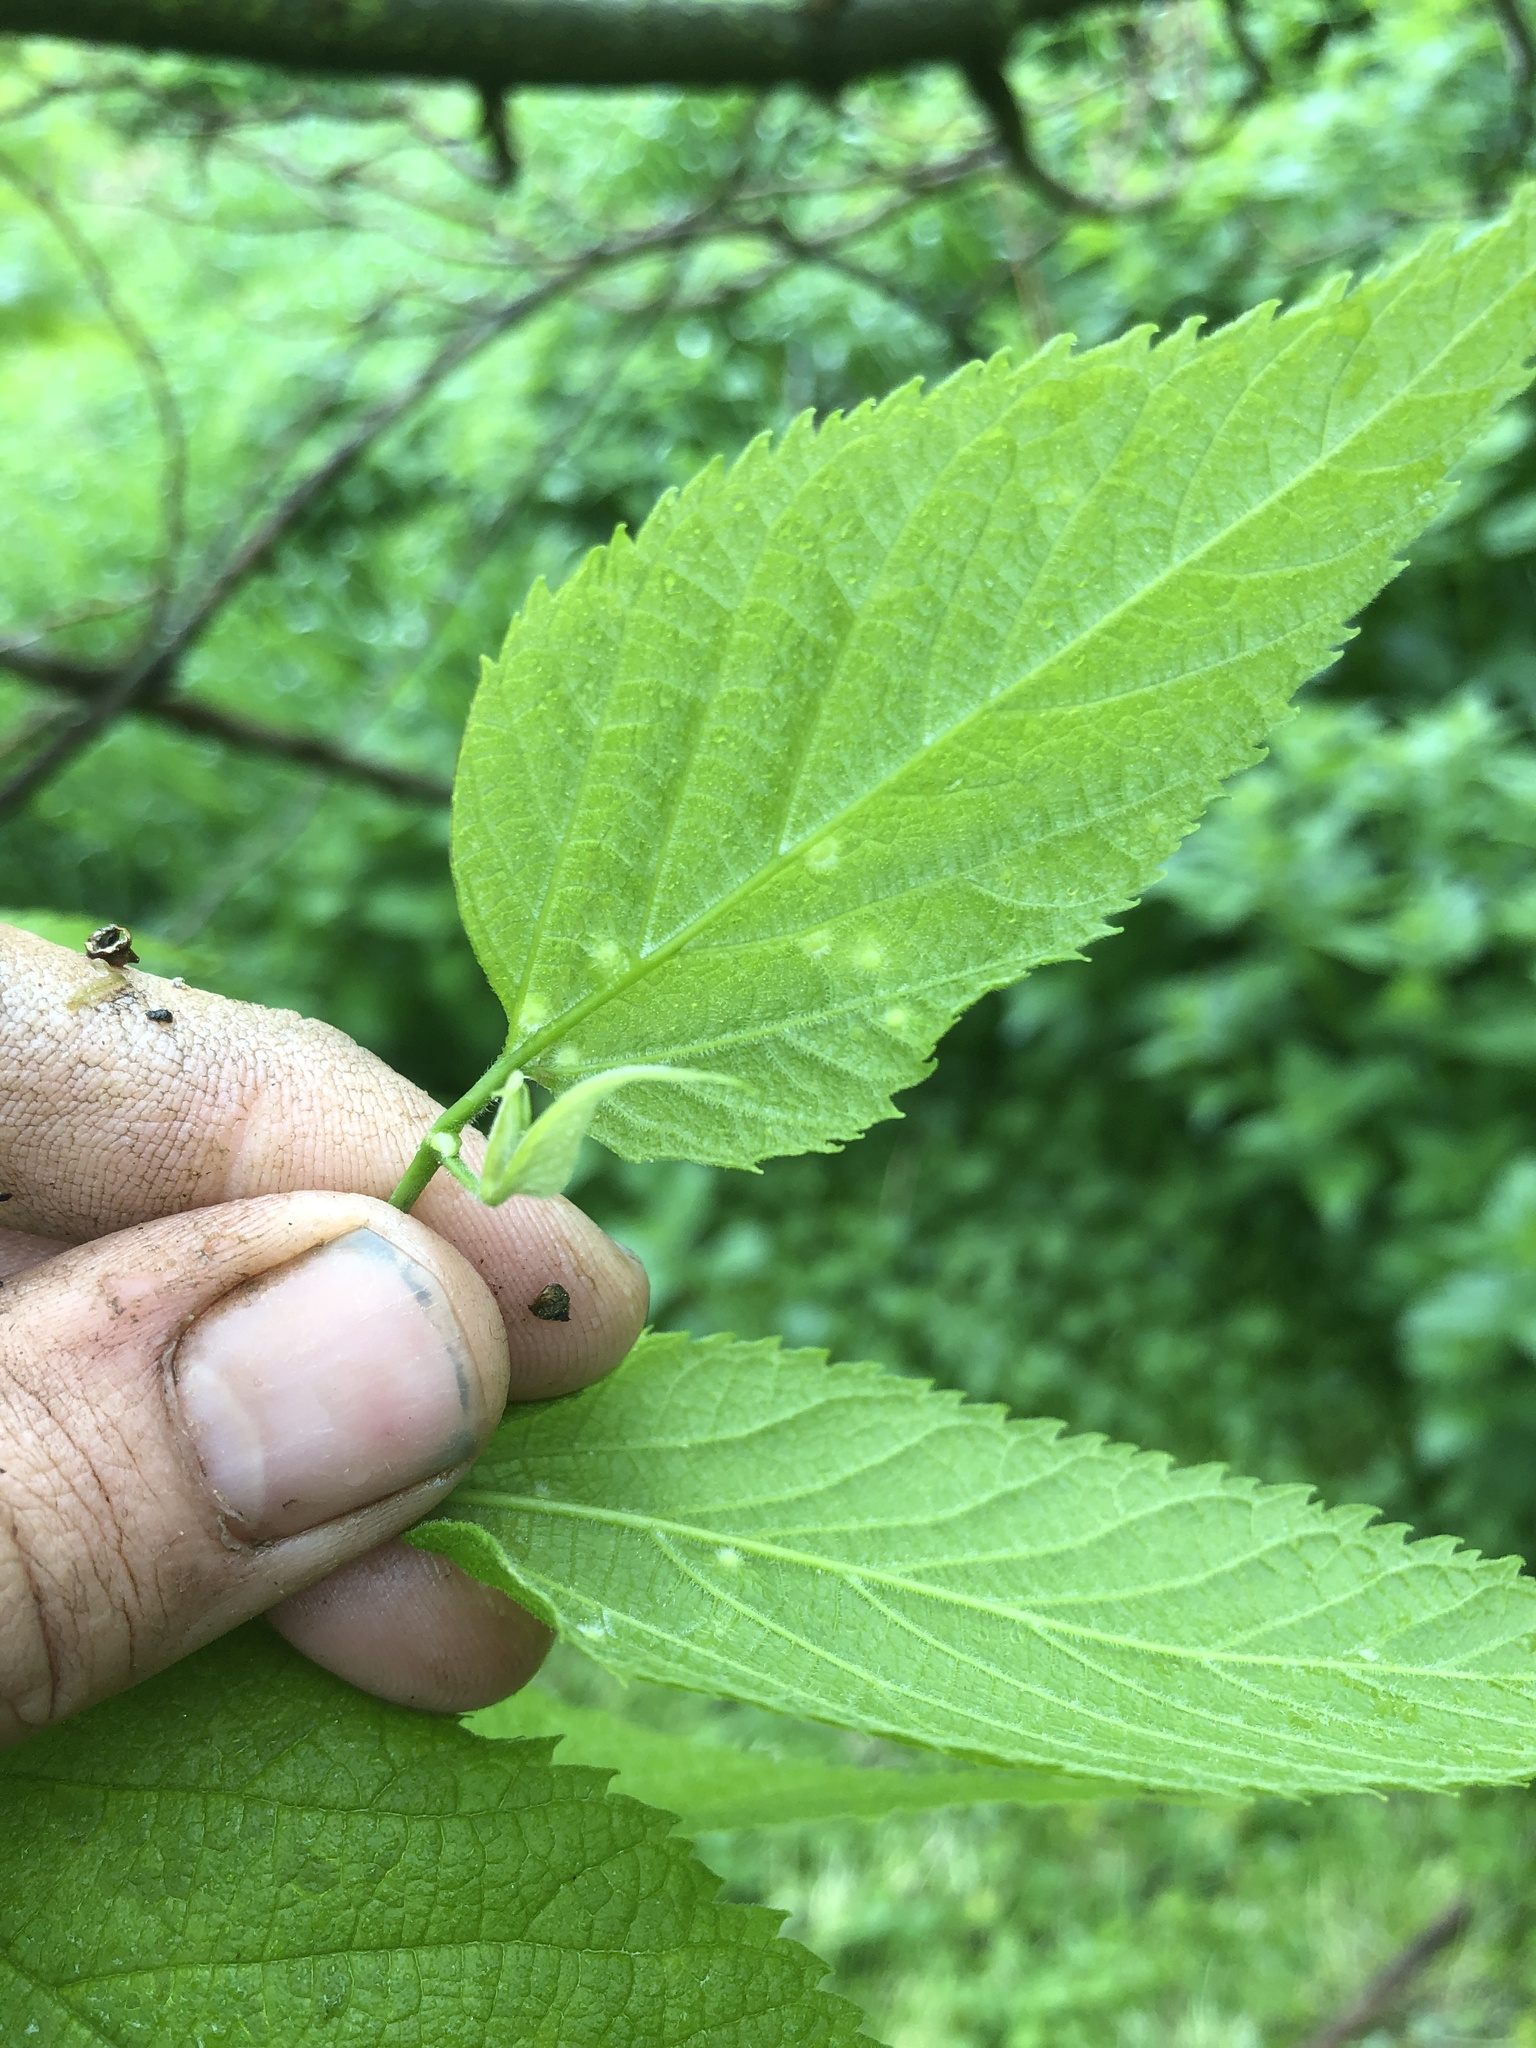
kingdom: Animalia
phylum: Arthropoda
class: Insecta
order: Hemiptera
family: Aphalaridae
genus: Pachypsylla
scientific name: Pachypsylla celtidismamma
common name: Hackberry nipplegall psyllid
